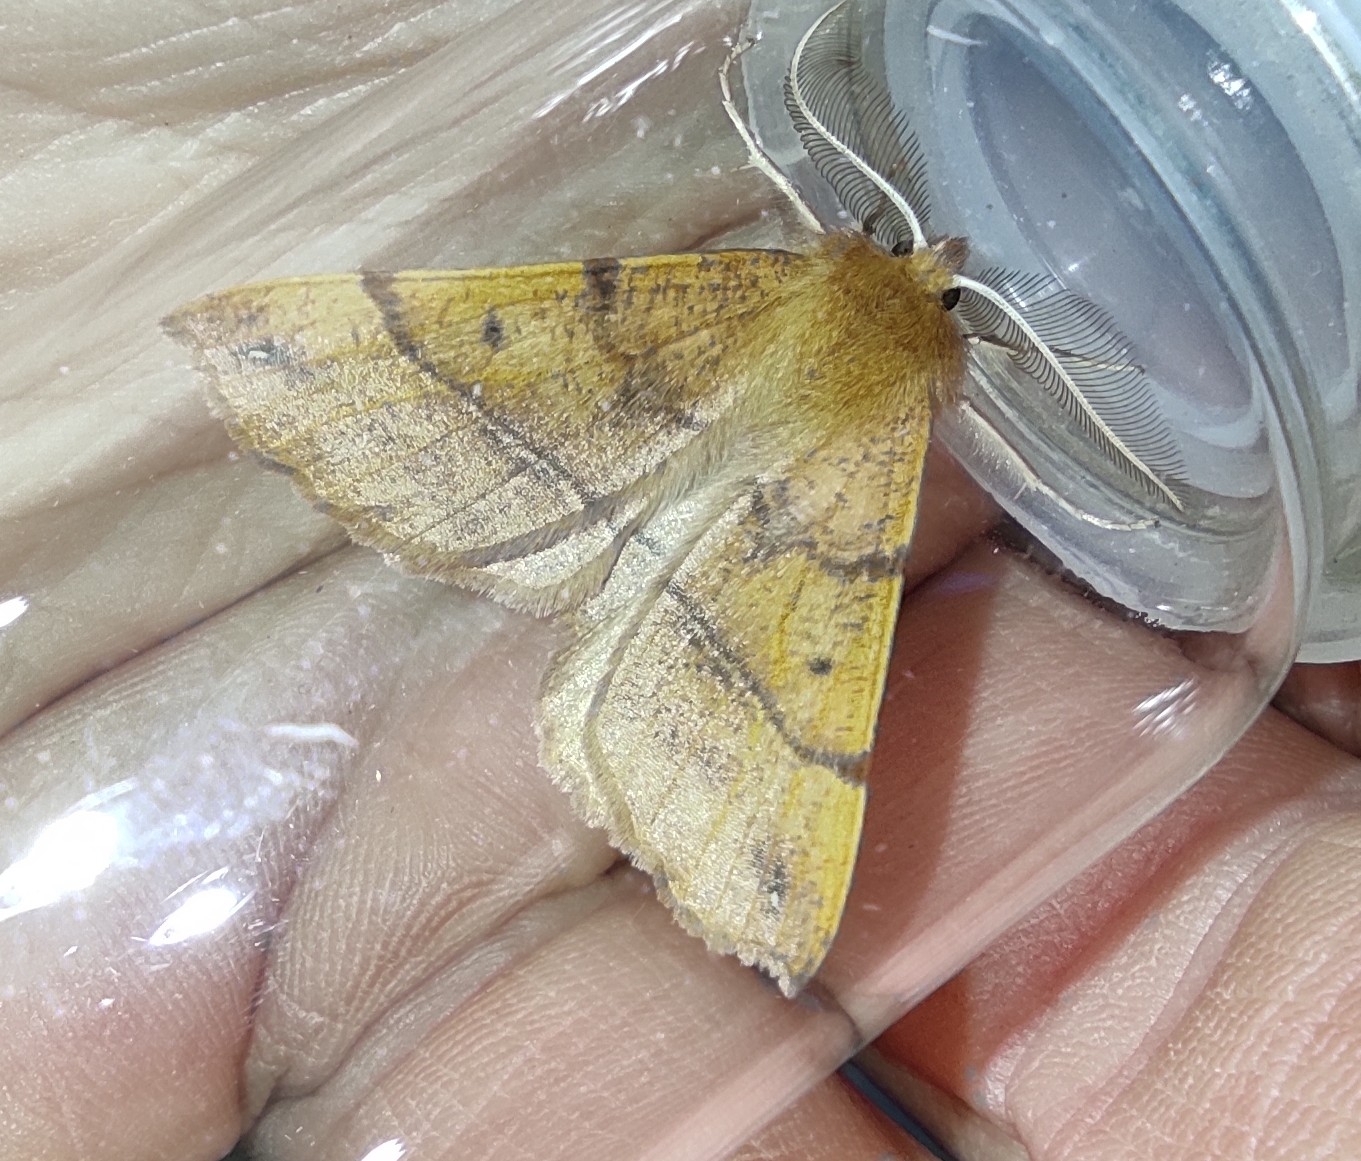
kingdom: Animalia
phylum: Arthropoda
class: Insecta
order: Lepidoptera
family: Geometridae
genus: Colotois
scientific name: Colotois pennaria
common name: Feathered thorn
